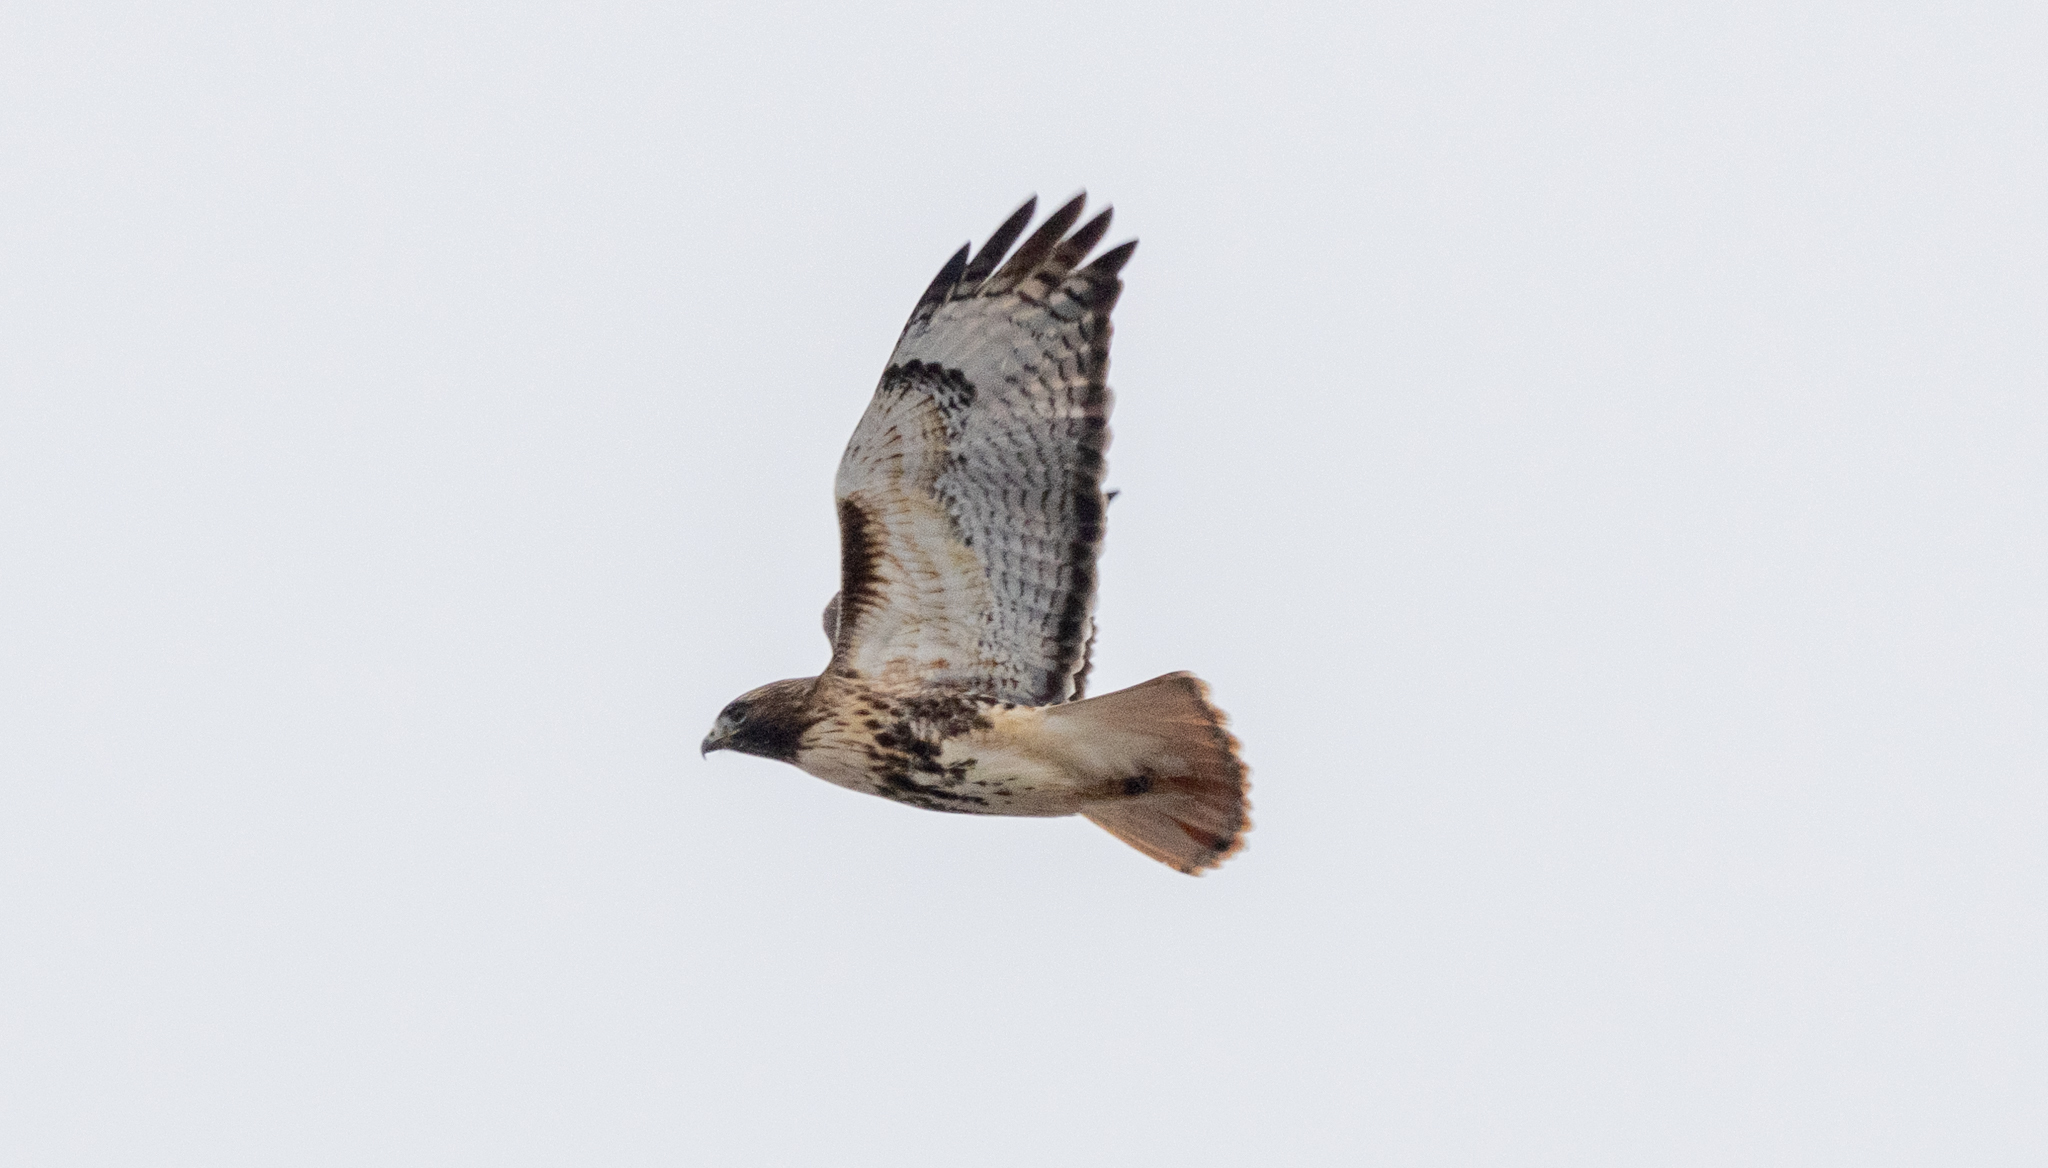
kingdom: Animalia
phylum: Chordata
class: Aves
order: Accipitriformes
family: Accipitridae
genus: Buteo
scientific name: Buteo jamaicensis
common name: Red-tailed hawk
